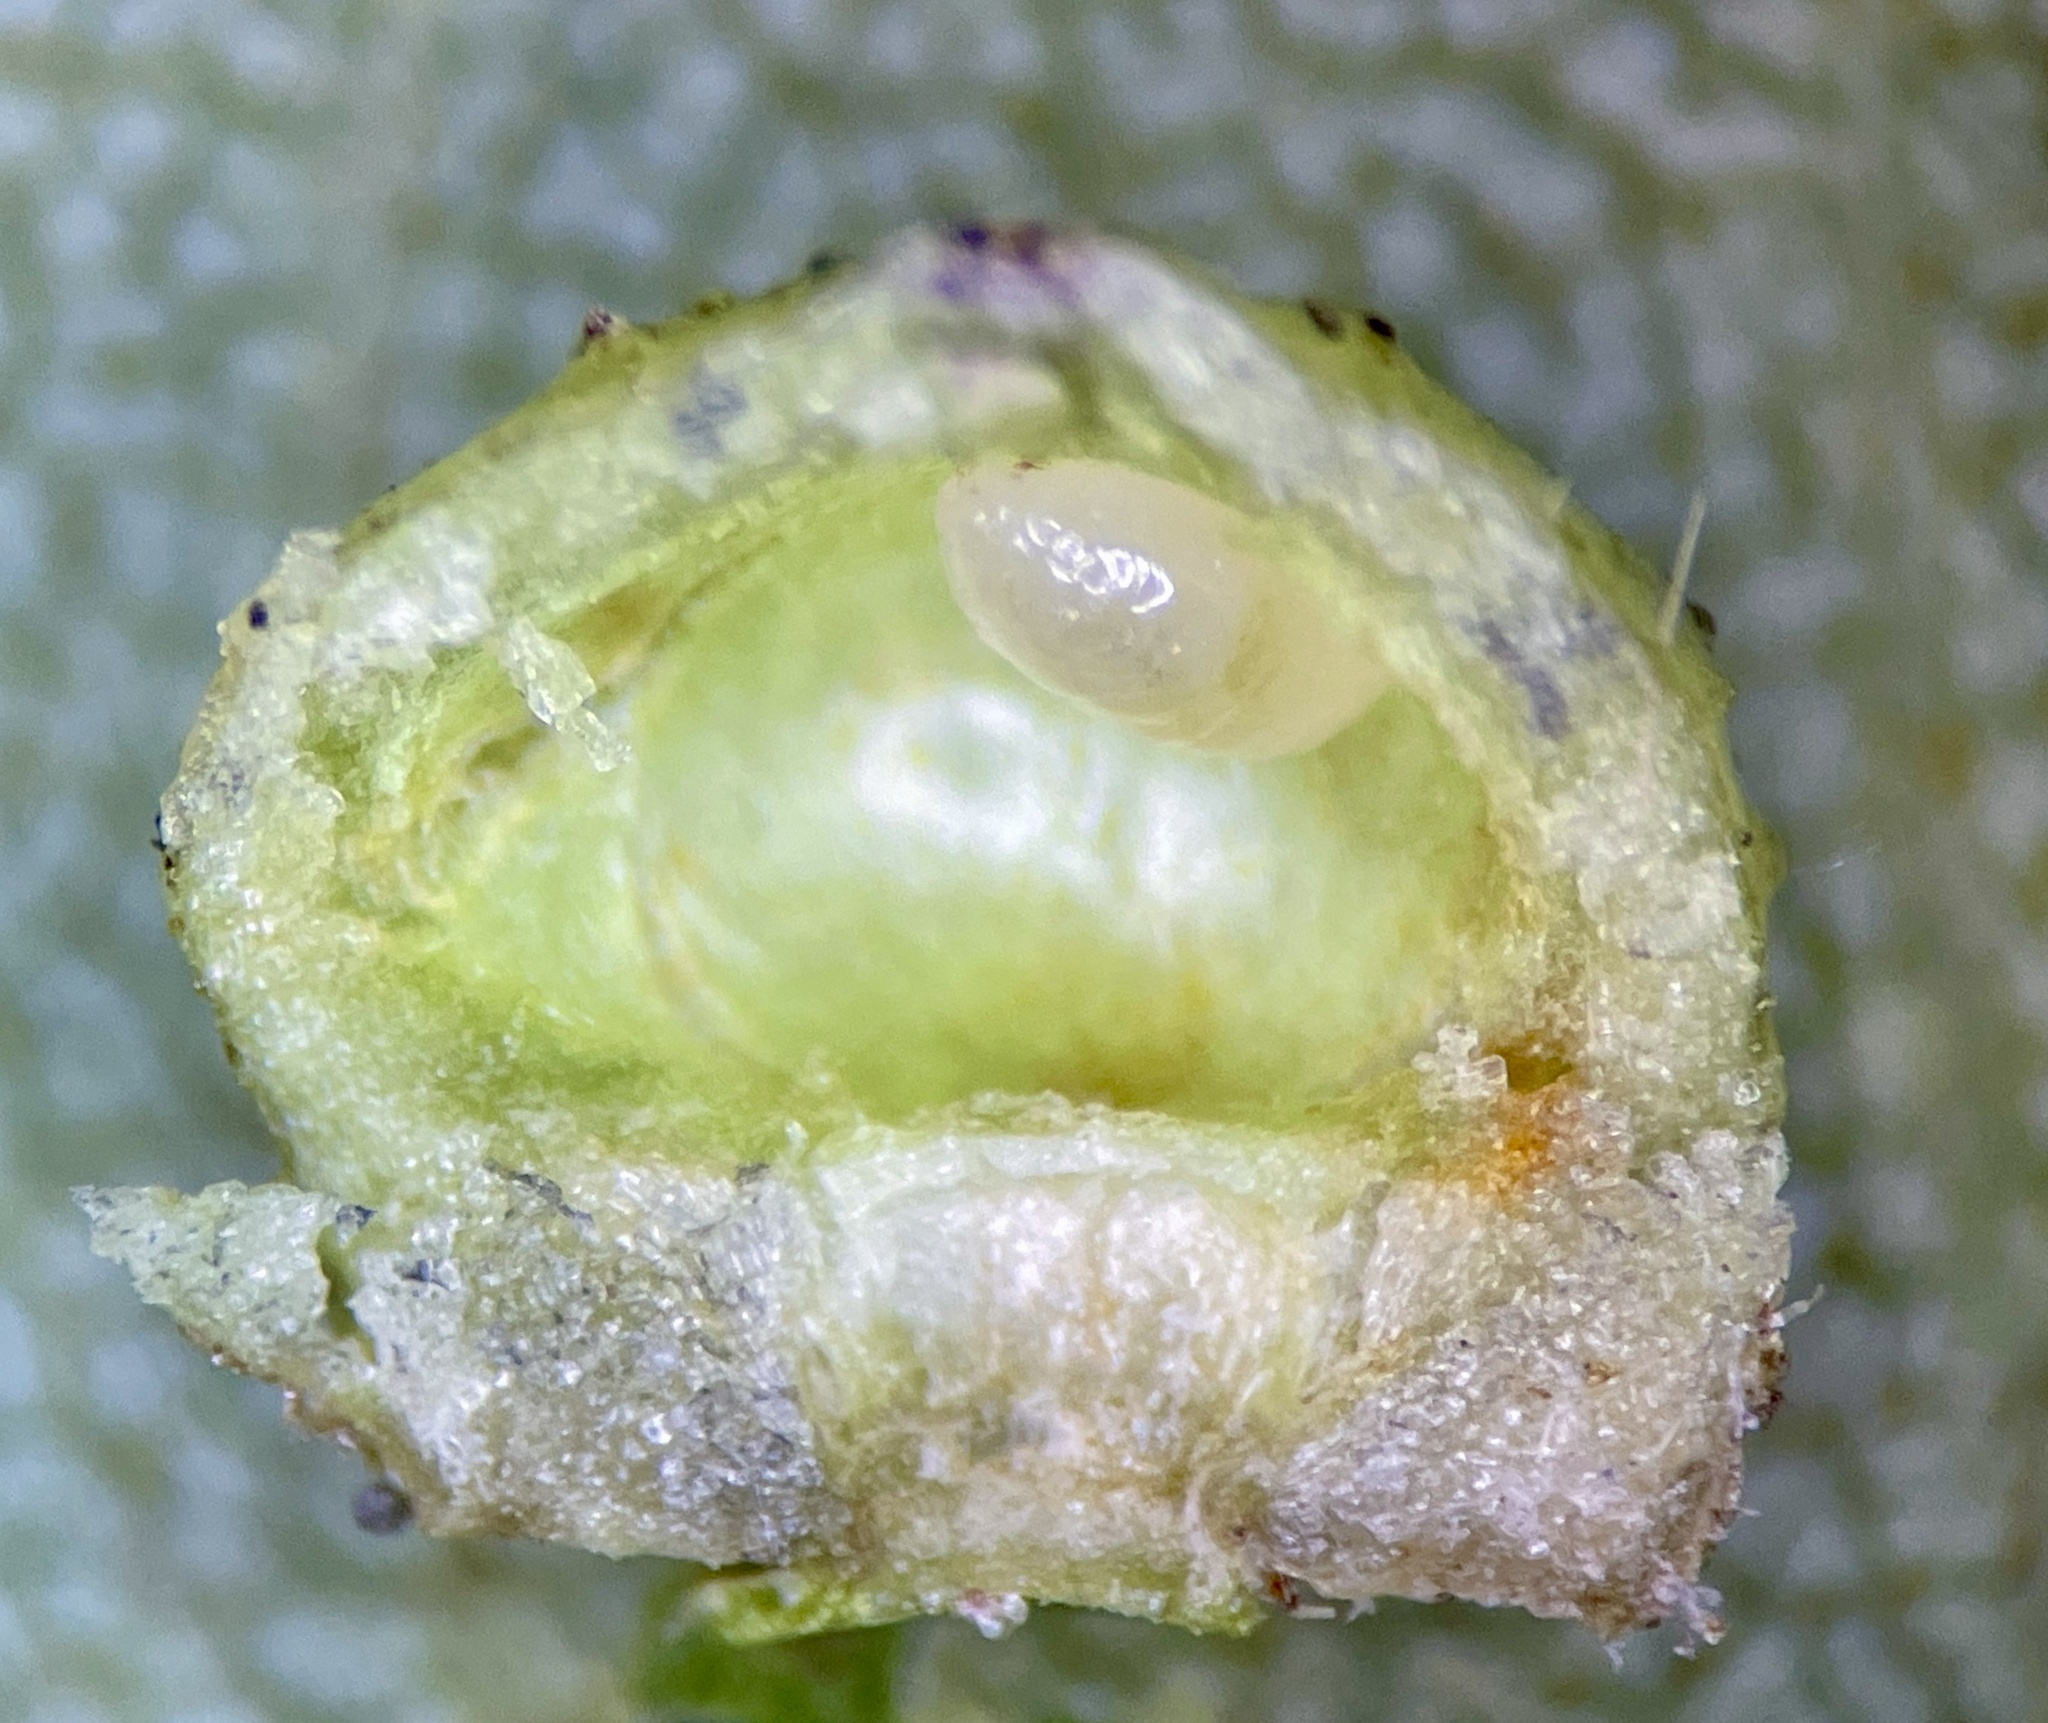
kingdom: Animalia
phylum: Arthropoda
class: Insecta
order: Diptera
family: Cecidomyiidae
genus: Caryomyia
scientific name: Caryomyia tuberculata
